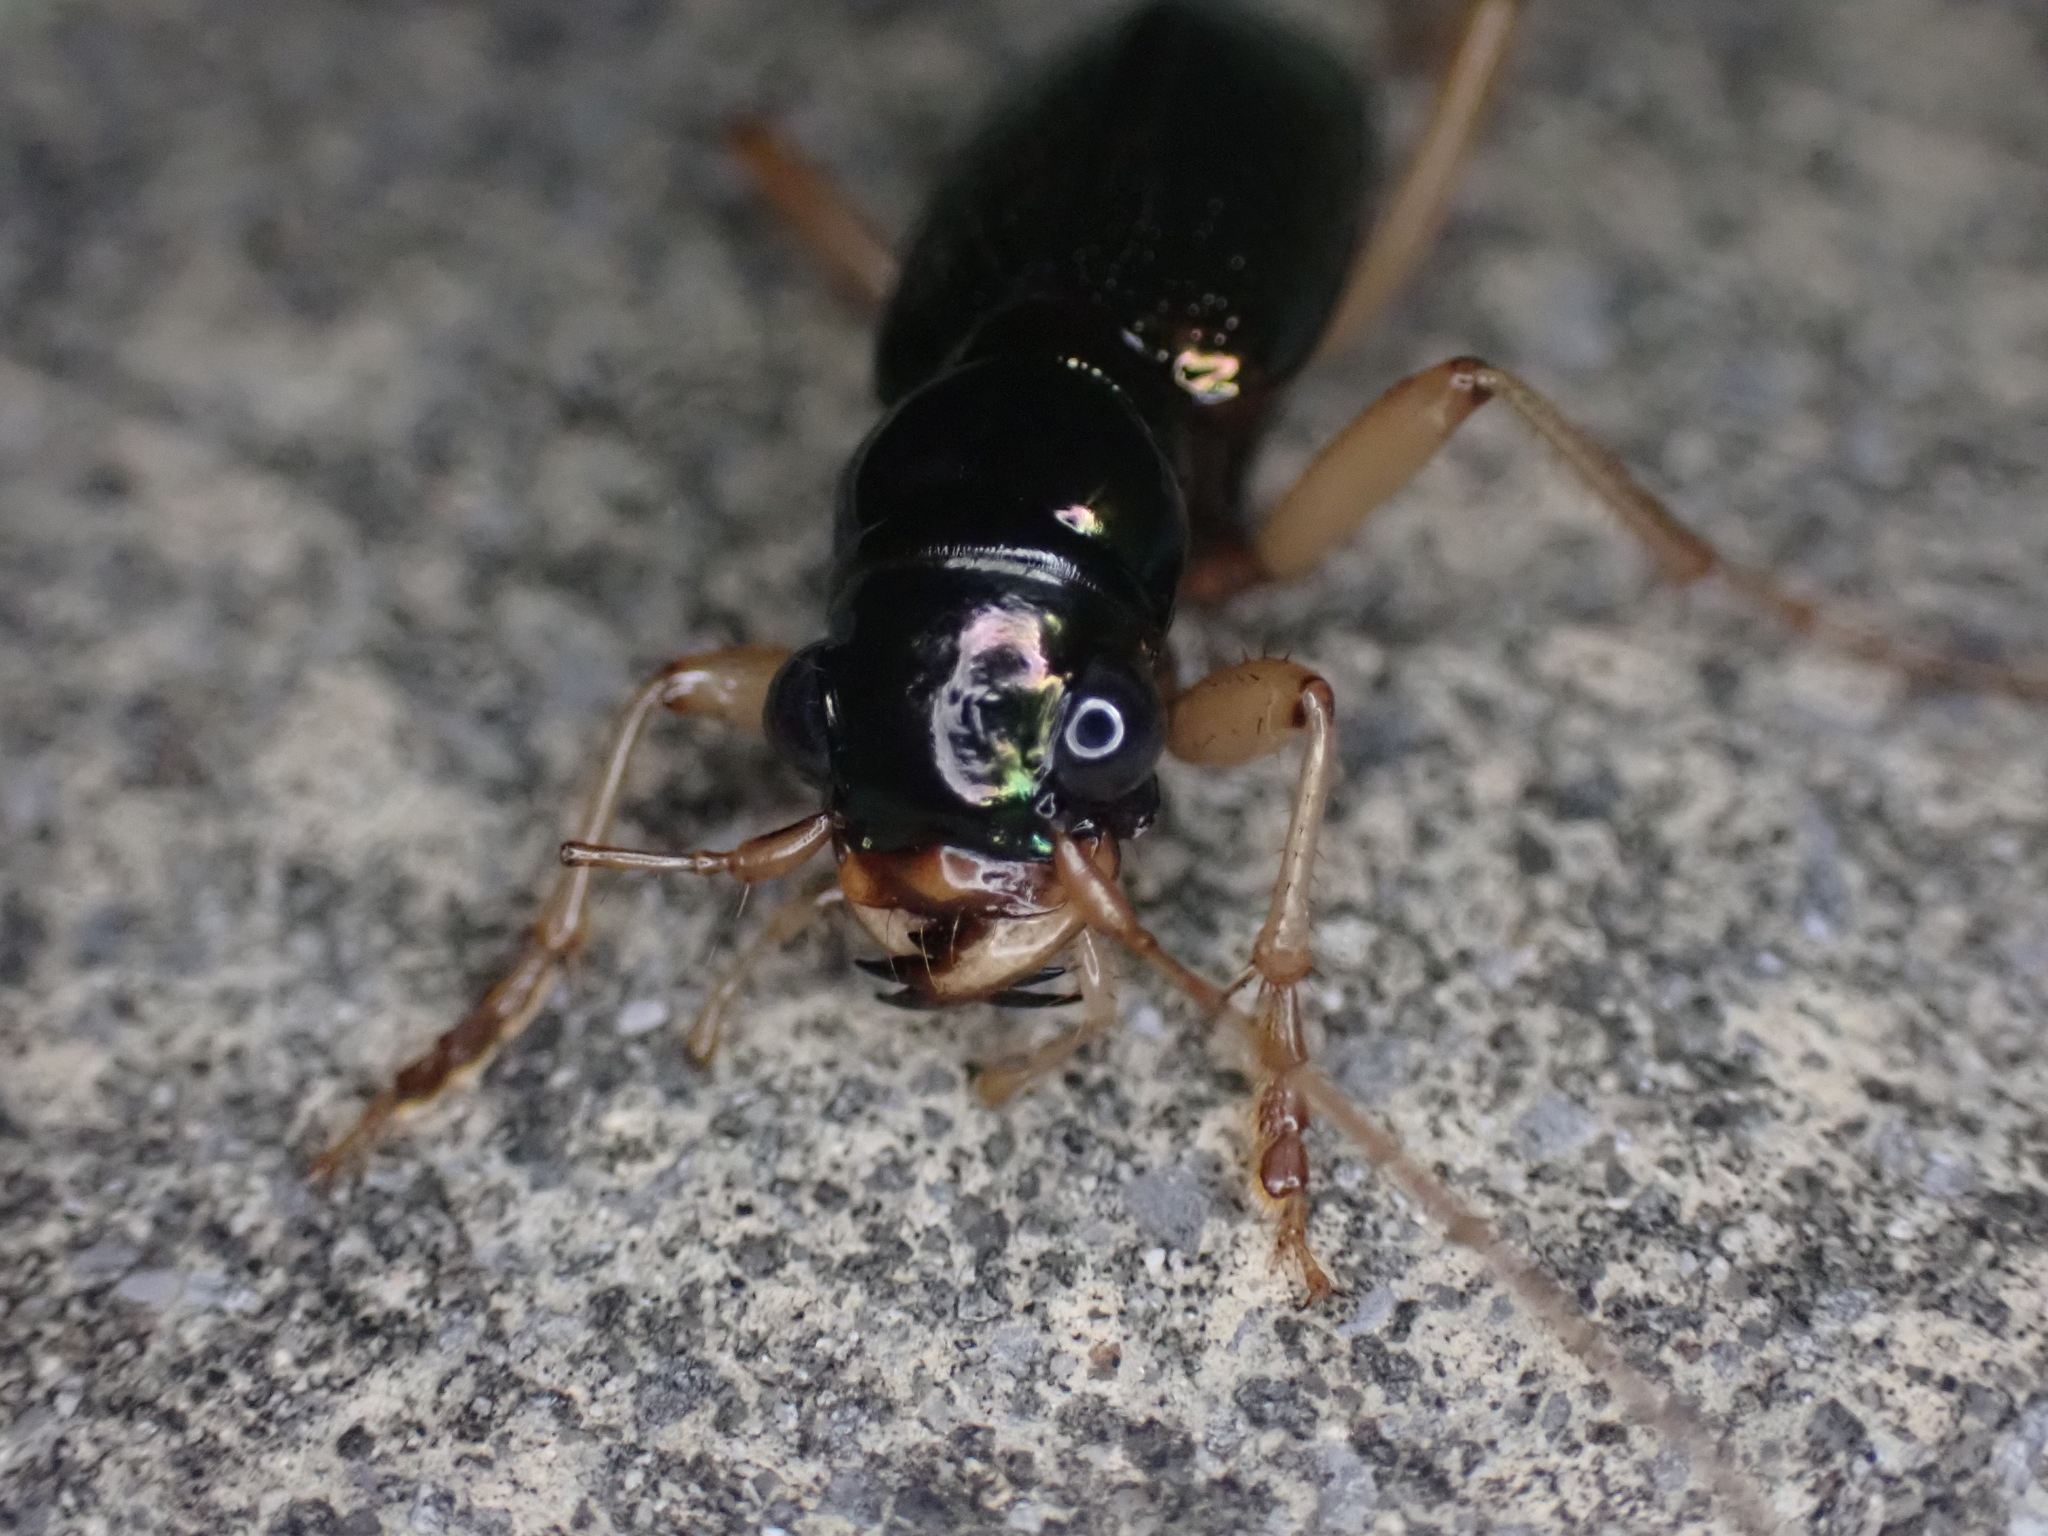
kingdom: Animalia
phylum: Arthropoda
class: Insecta
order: Coleoptera
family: Carabidae
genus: Tetracha
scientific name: Tetracha virginica
